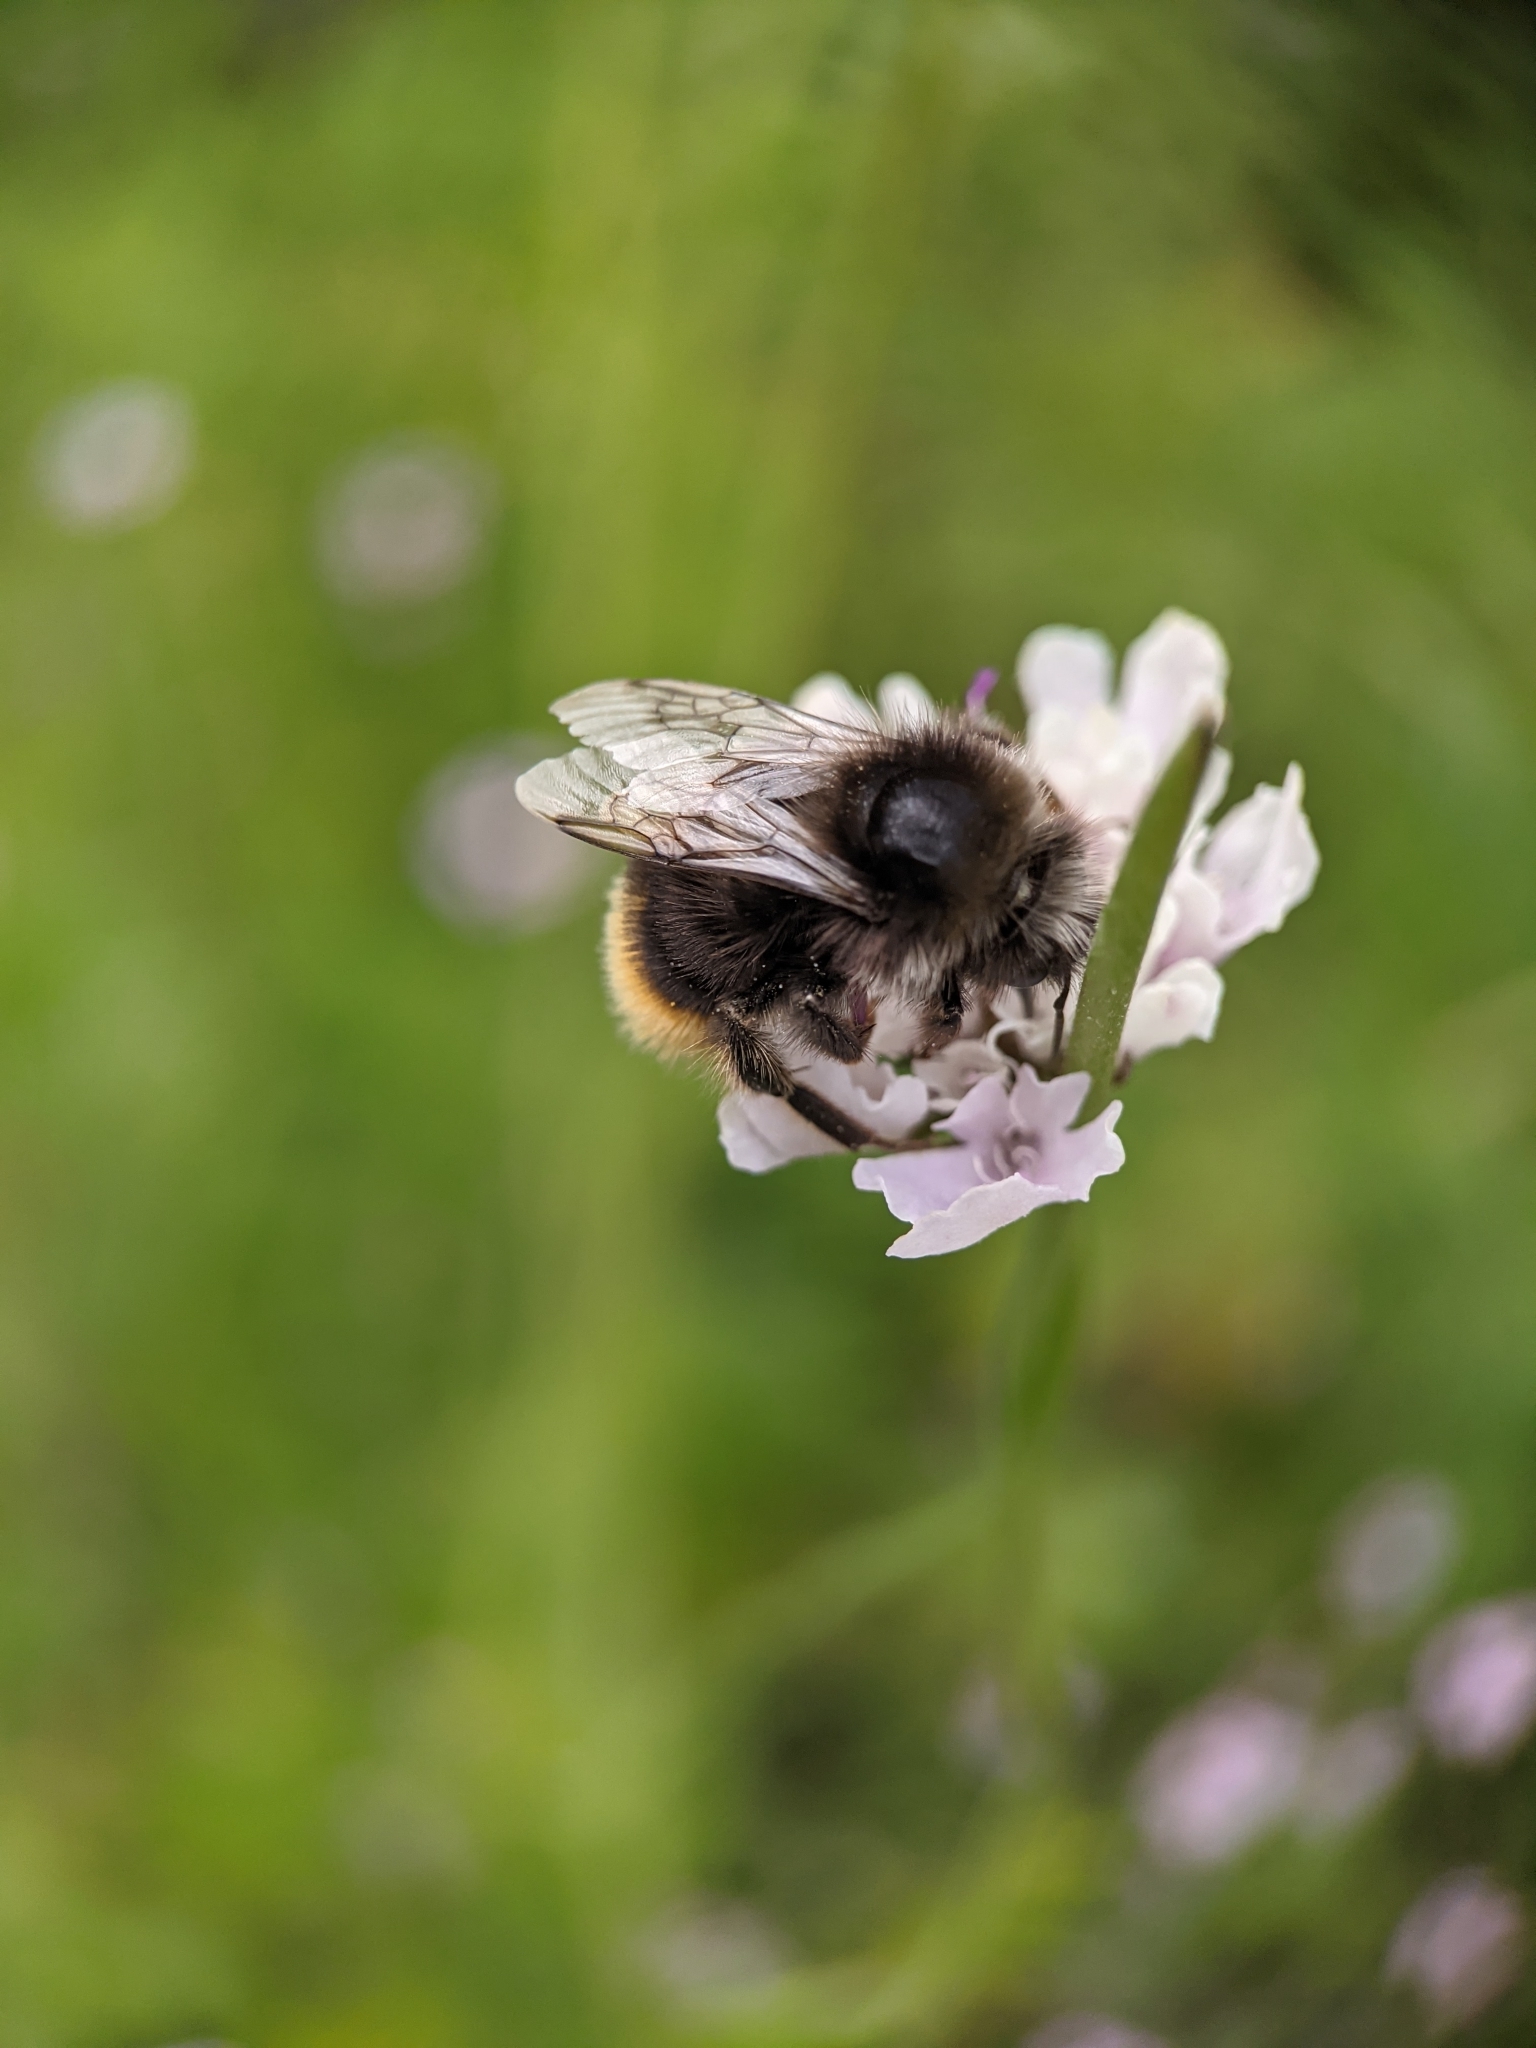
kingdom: Animalia
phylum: Arthropoda
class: Insecta
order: Hymenoptera
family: Apidae
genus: Bombus
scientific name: Bombus lapidarius
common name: Large red-tailed humble-bee
